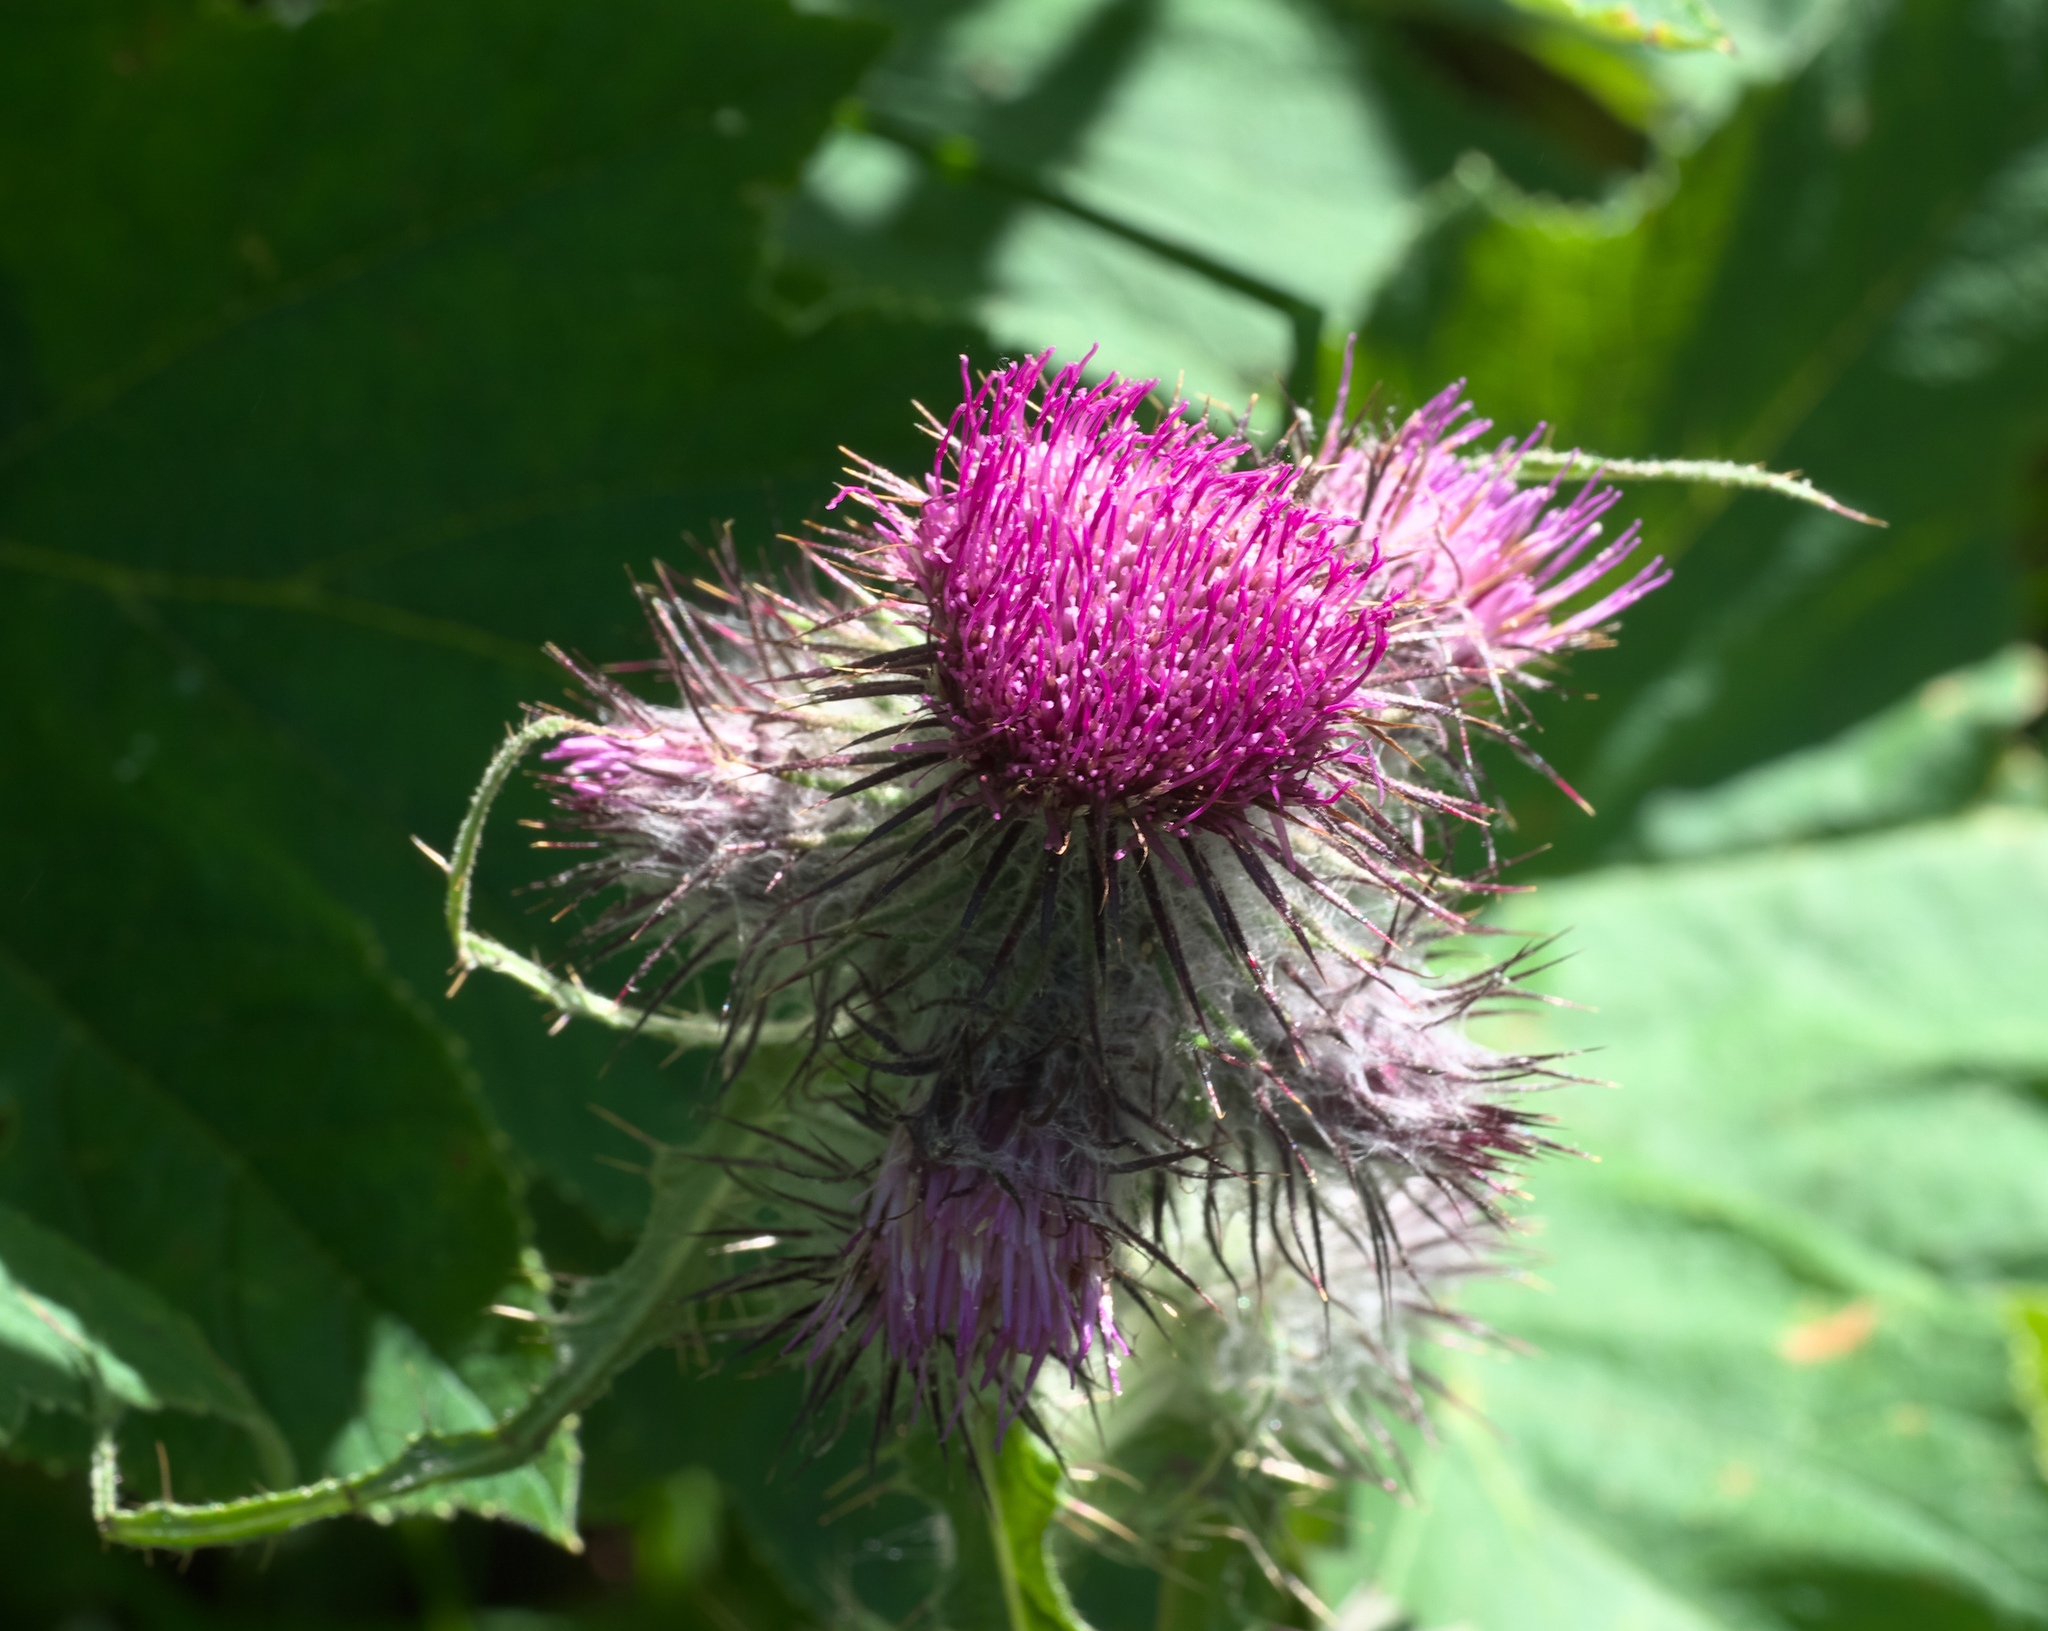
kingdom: Plantae
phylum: Tracheophyta
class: Magnoliopsida
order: Asterales
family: Asteraceae
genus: Cirsium
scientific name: Cirsium edule
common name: Indian thistle
